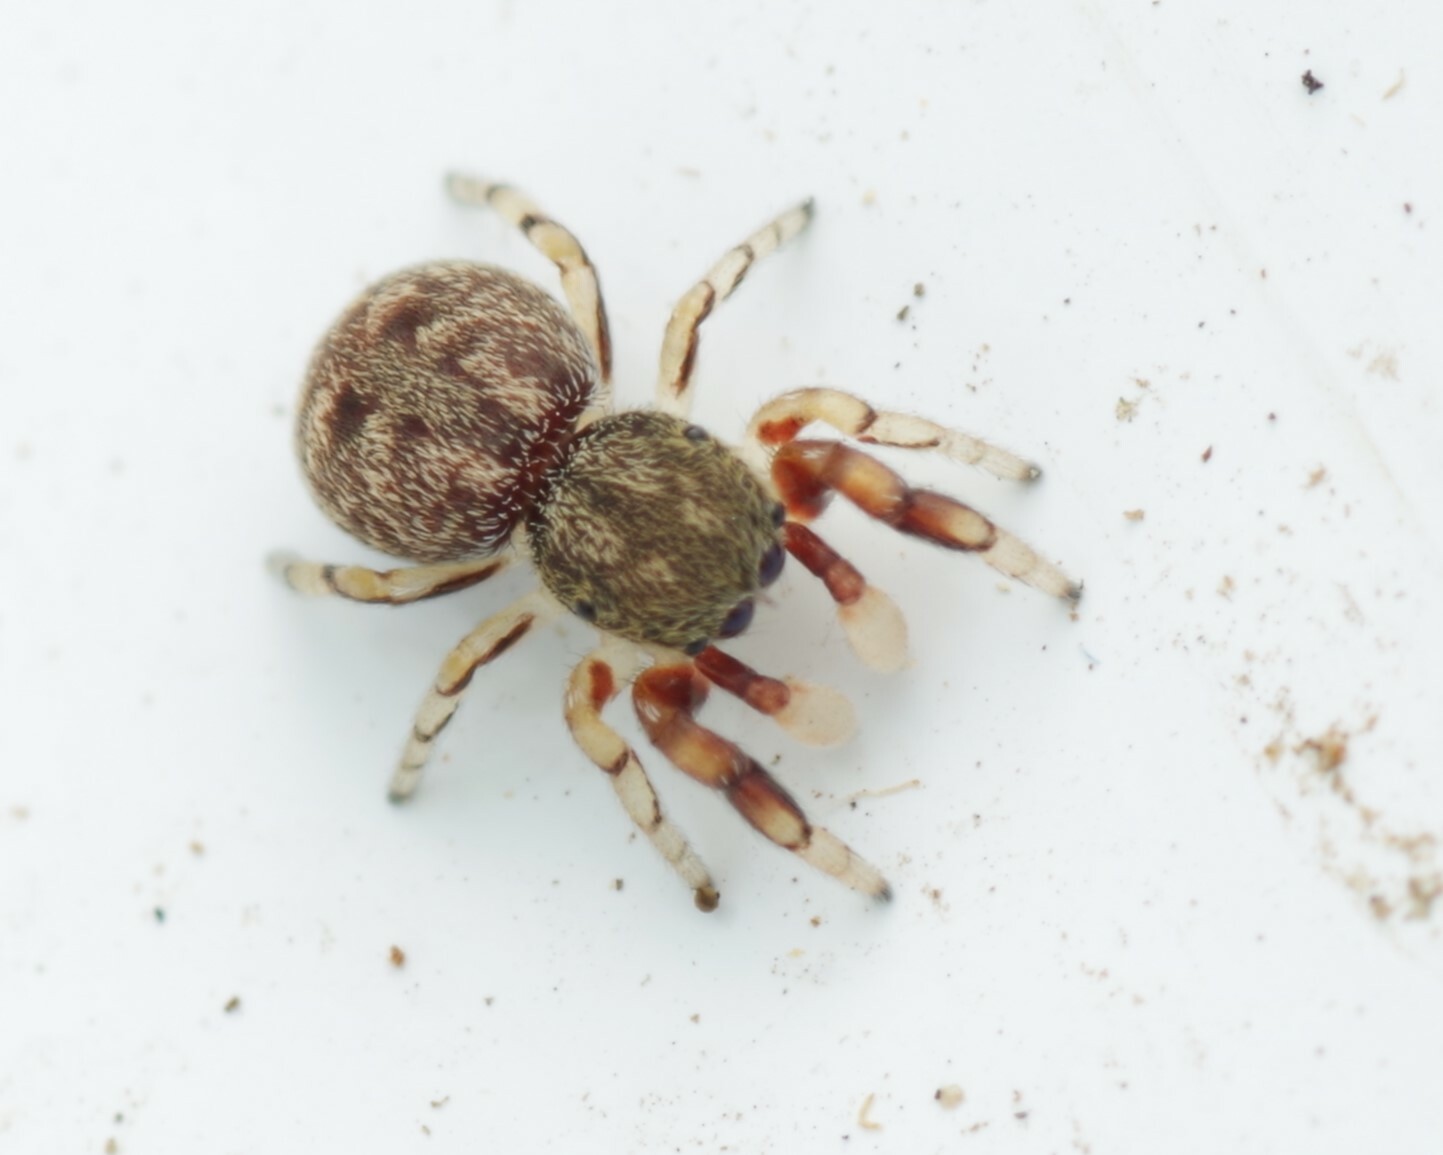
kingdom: Animalia
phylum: Arthropoda
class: Arachnida
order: Araneae
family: Salticidae
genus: Ballus
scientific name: Ballus chalybeius
